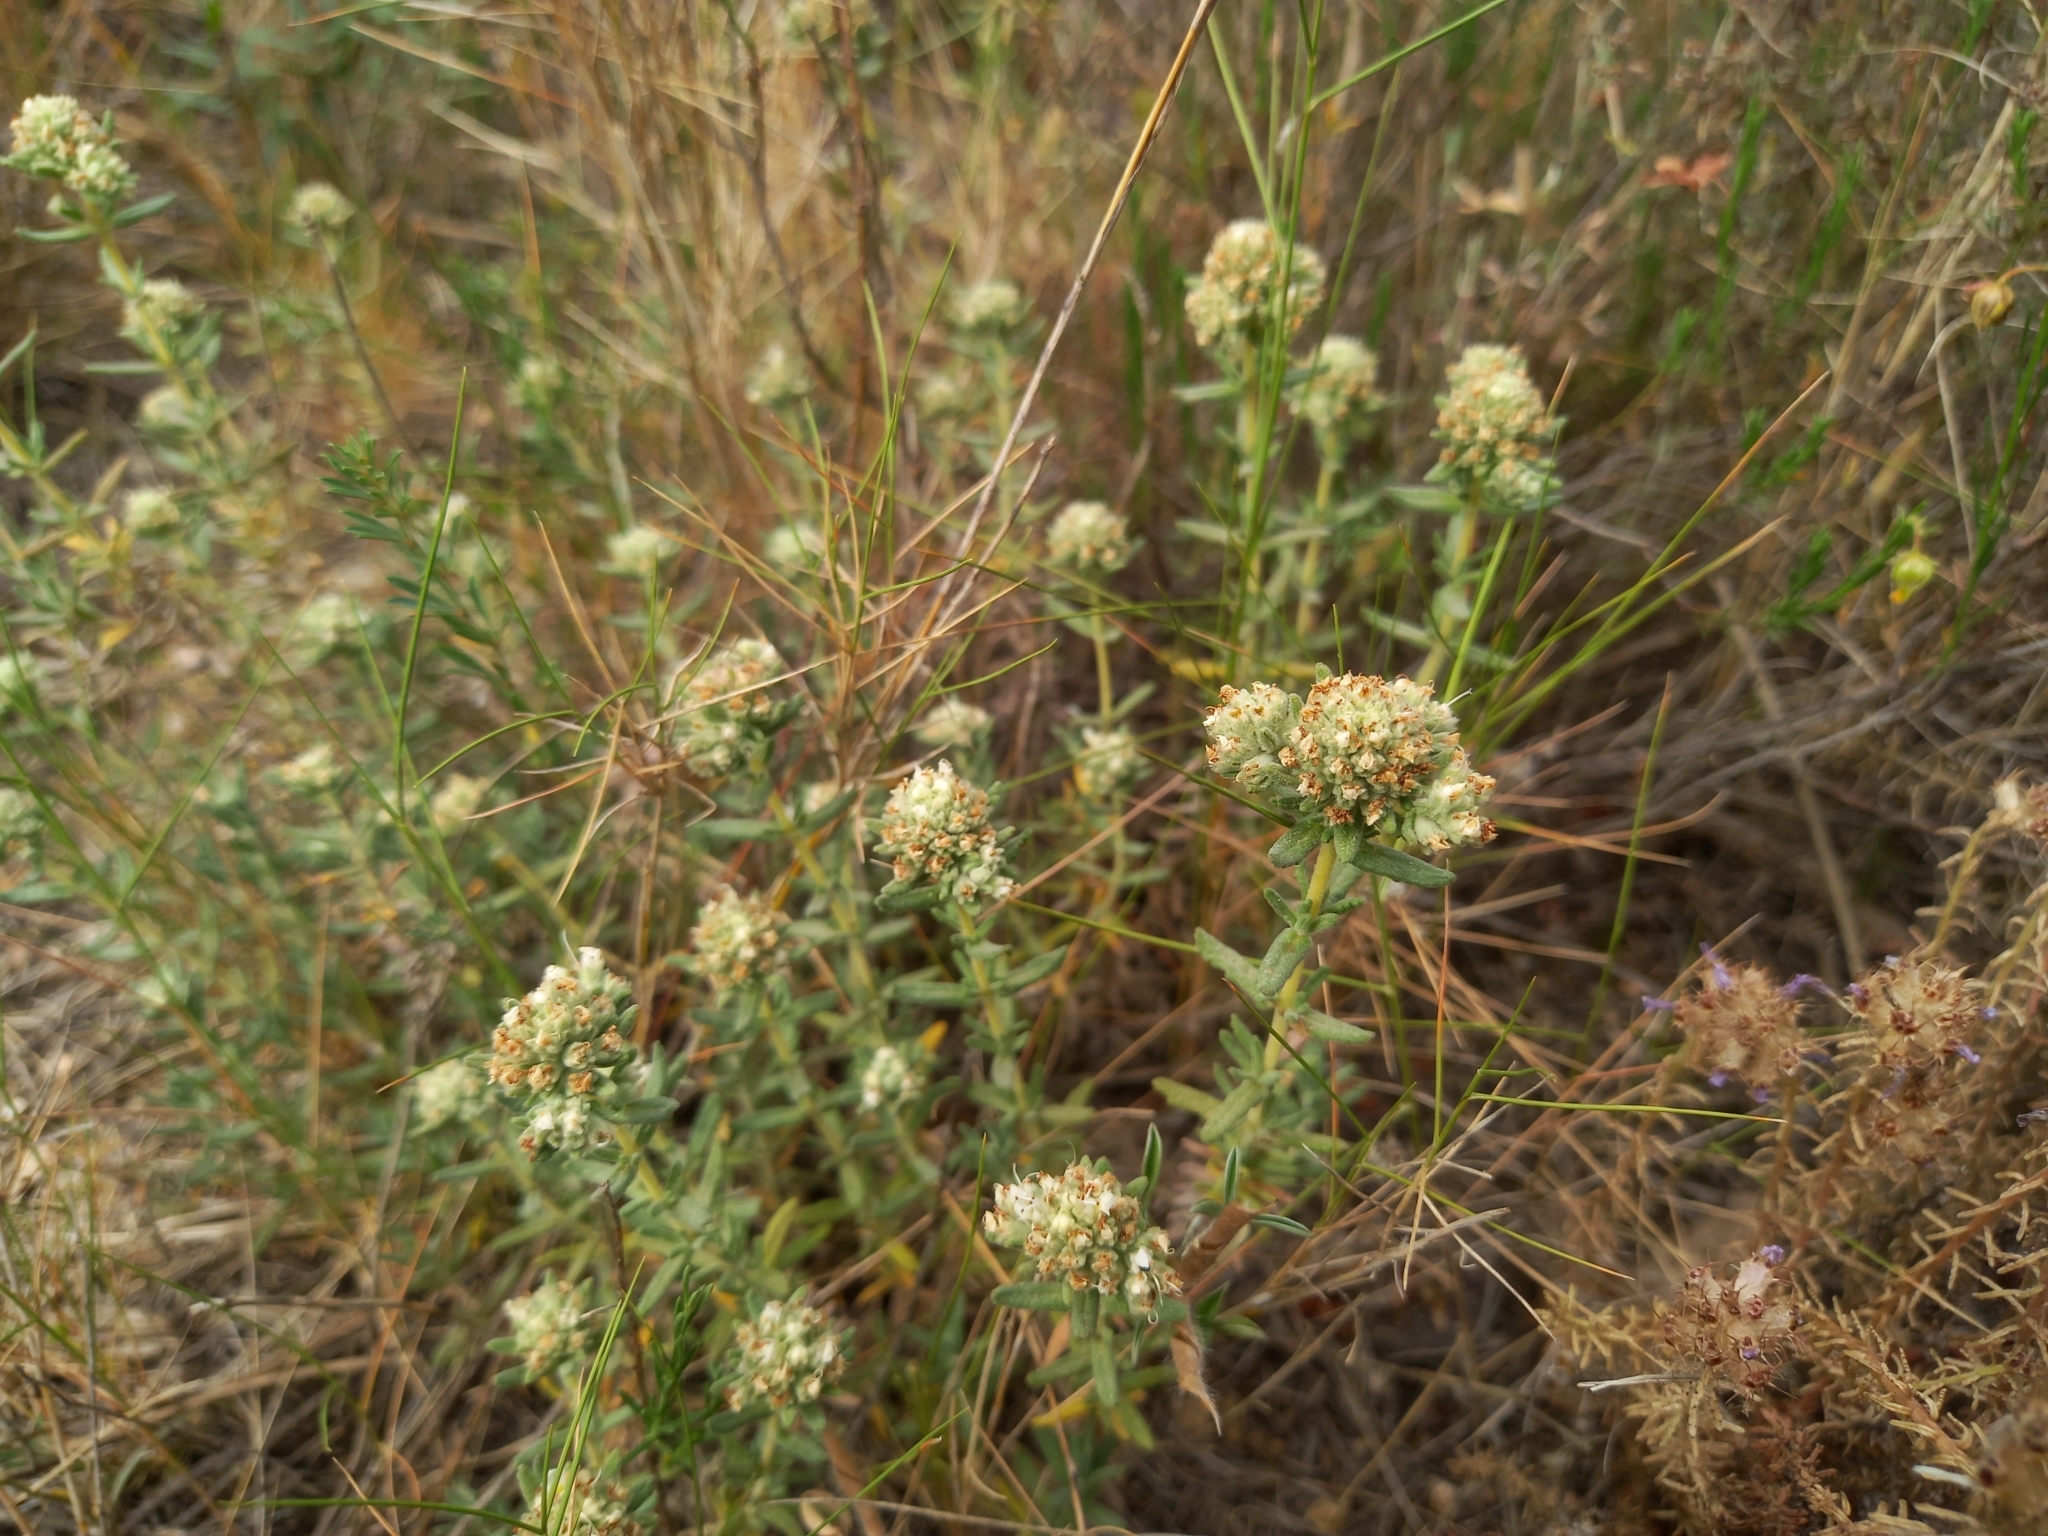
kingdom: Plantae
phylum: Tracheophyta
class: Magnoliopsida
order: Lamiales
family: Lamiaceae
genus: Teucrium
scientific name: Teucrium polium
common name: Poley
